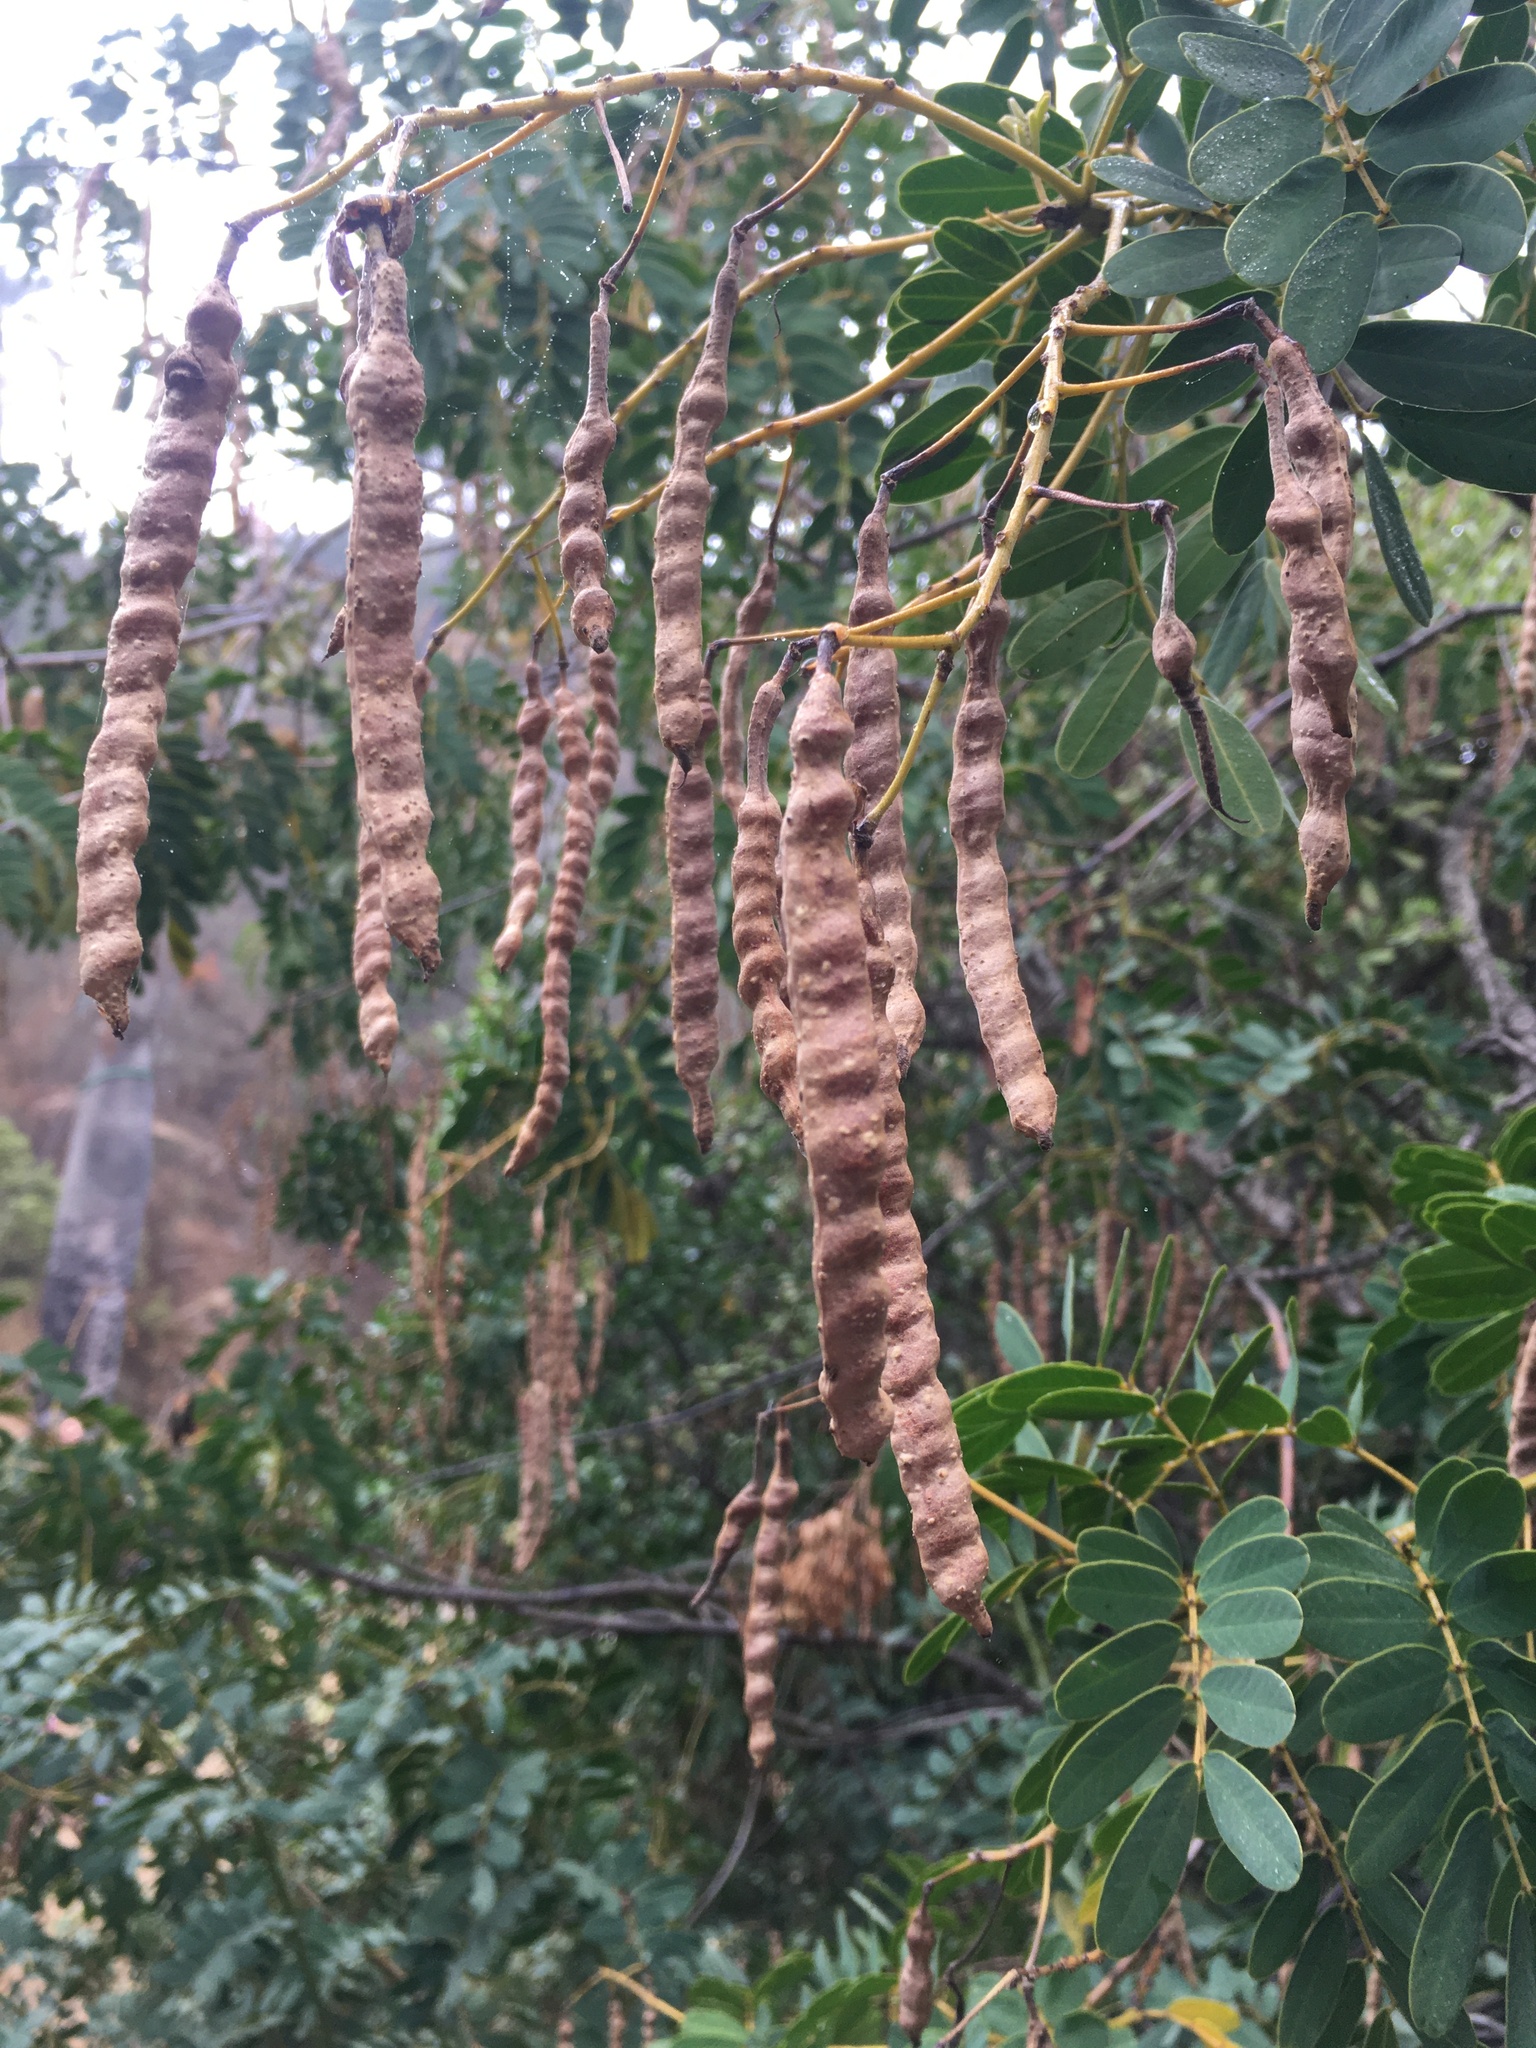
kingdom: Plantae
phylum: Tracheophyta
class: Magnoliopsida
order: Fabales
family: Fabaceae
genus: Senna
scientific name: Senna candolleana
